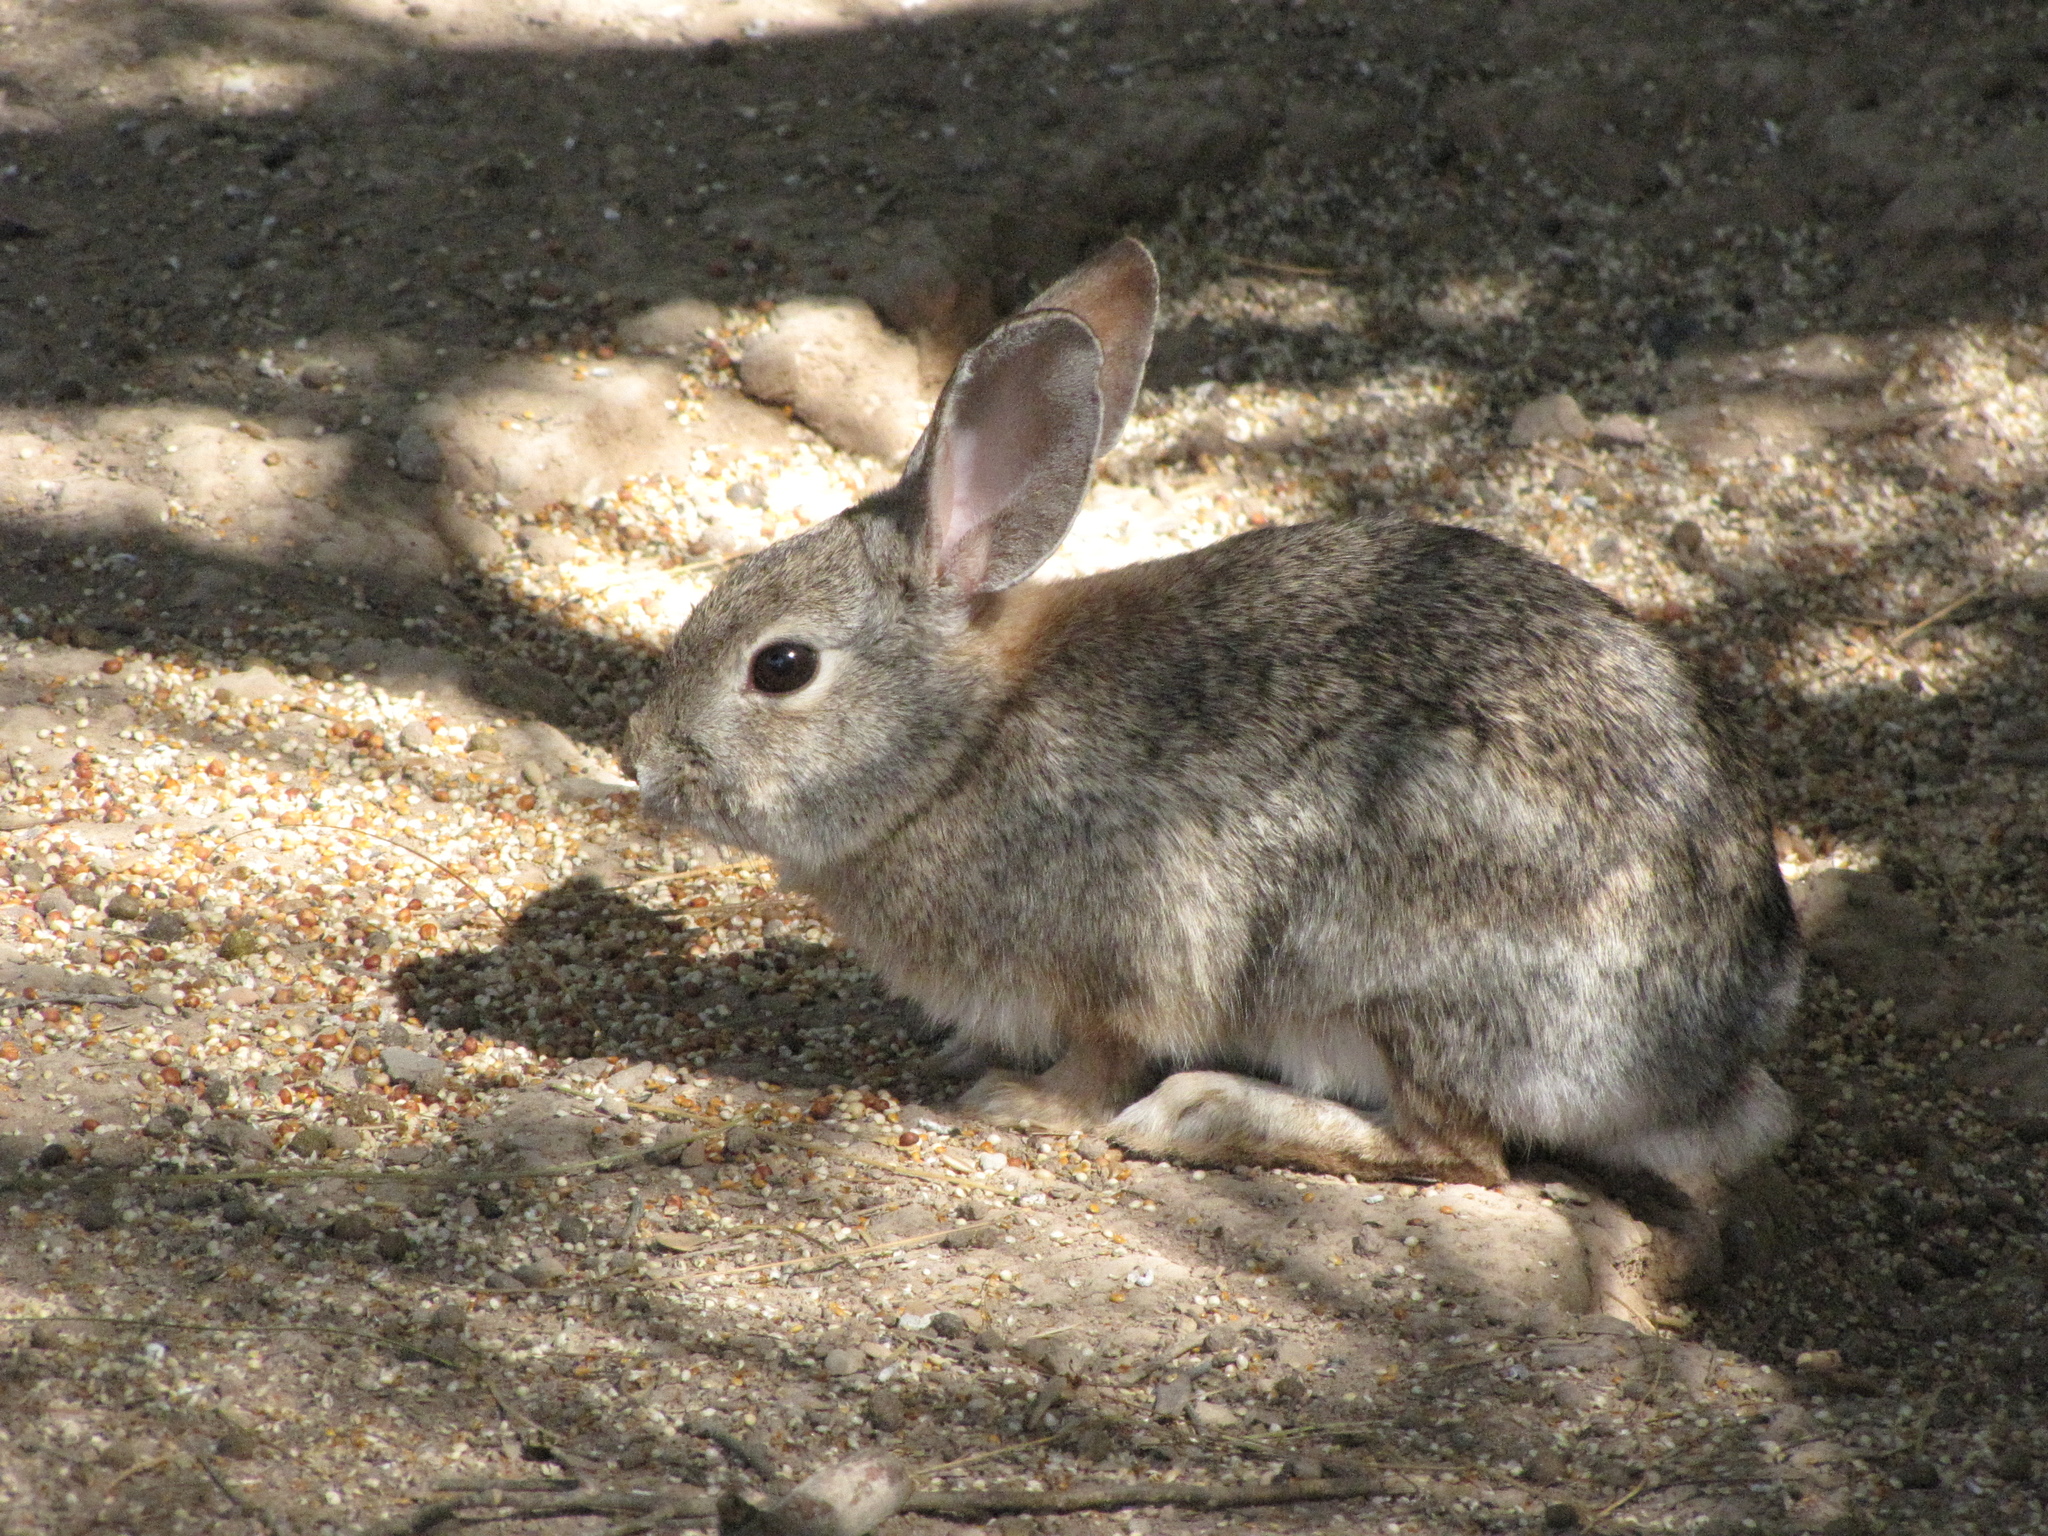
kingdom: Animalia
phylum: Chordata
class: Mammalia
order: Lagomorpha
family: Leporidae
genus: Sylvilagus
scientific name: Sylvilagus audubonii
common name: Desert cottontail
